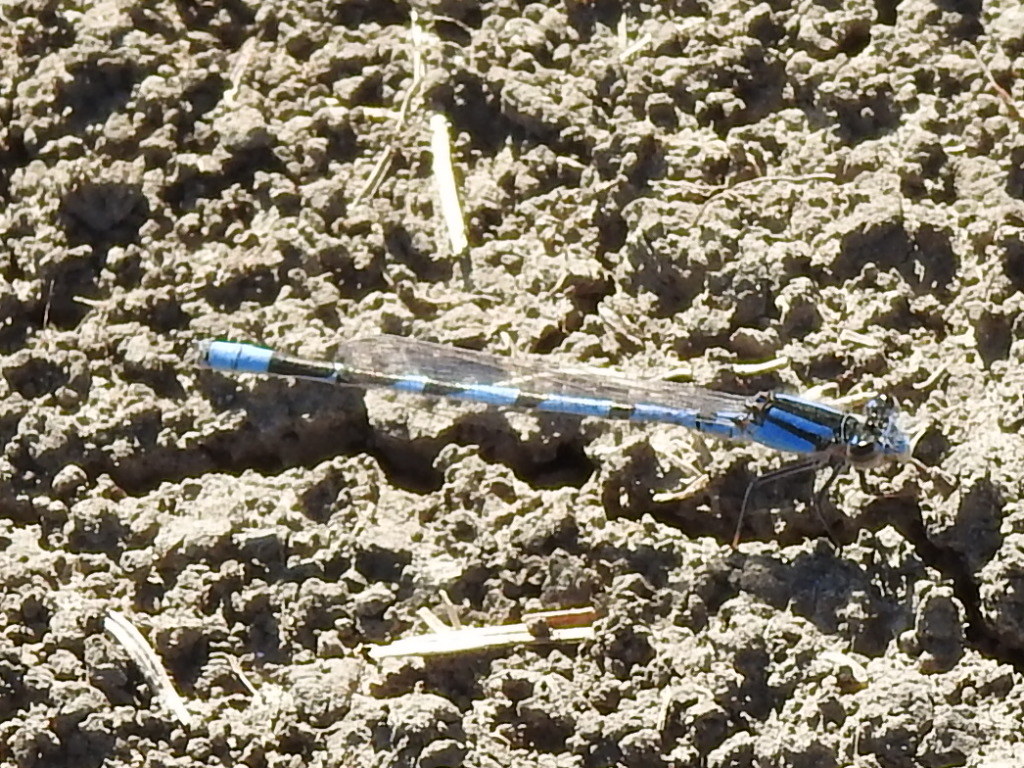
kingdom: Animalia
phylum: Arthropoda
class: Insecta
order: Odonata
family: Coenagrionidae
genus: Enallagma
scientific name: Enallagma civile
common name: Damselfly
